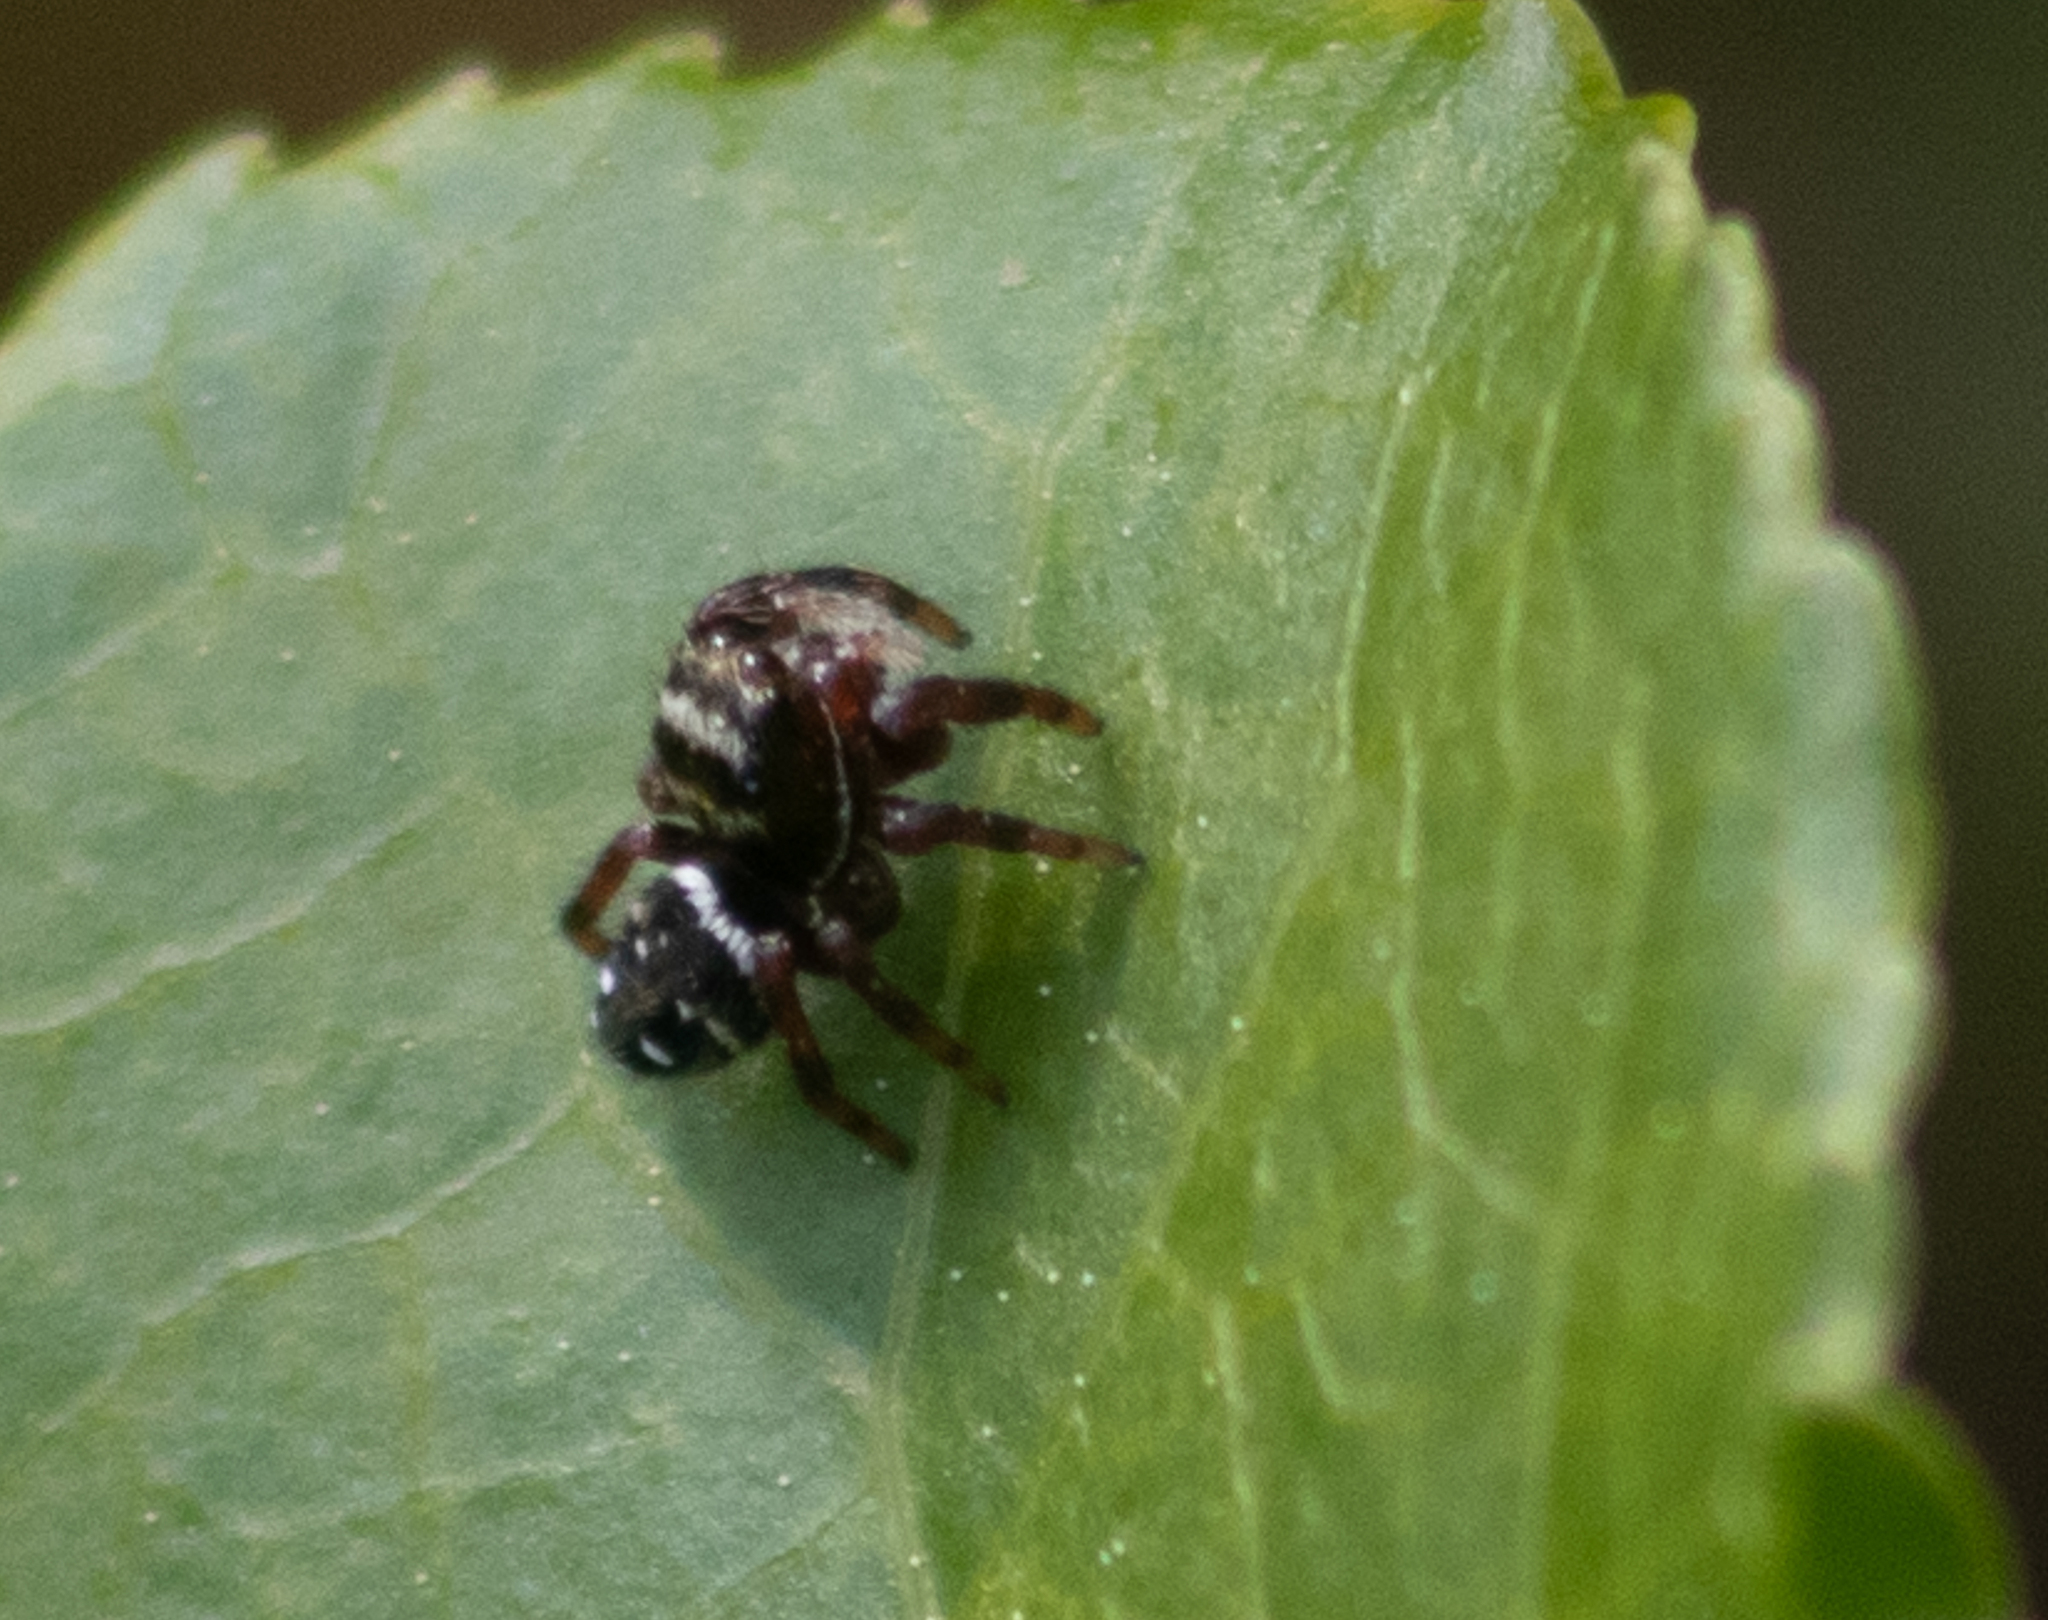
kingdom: Animalia
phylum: Arthropoda
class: Arachnida
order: Araneae
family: Salticidae
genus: Phidippus
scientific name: Phidippus clarus
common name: Brilliant jumping spider
